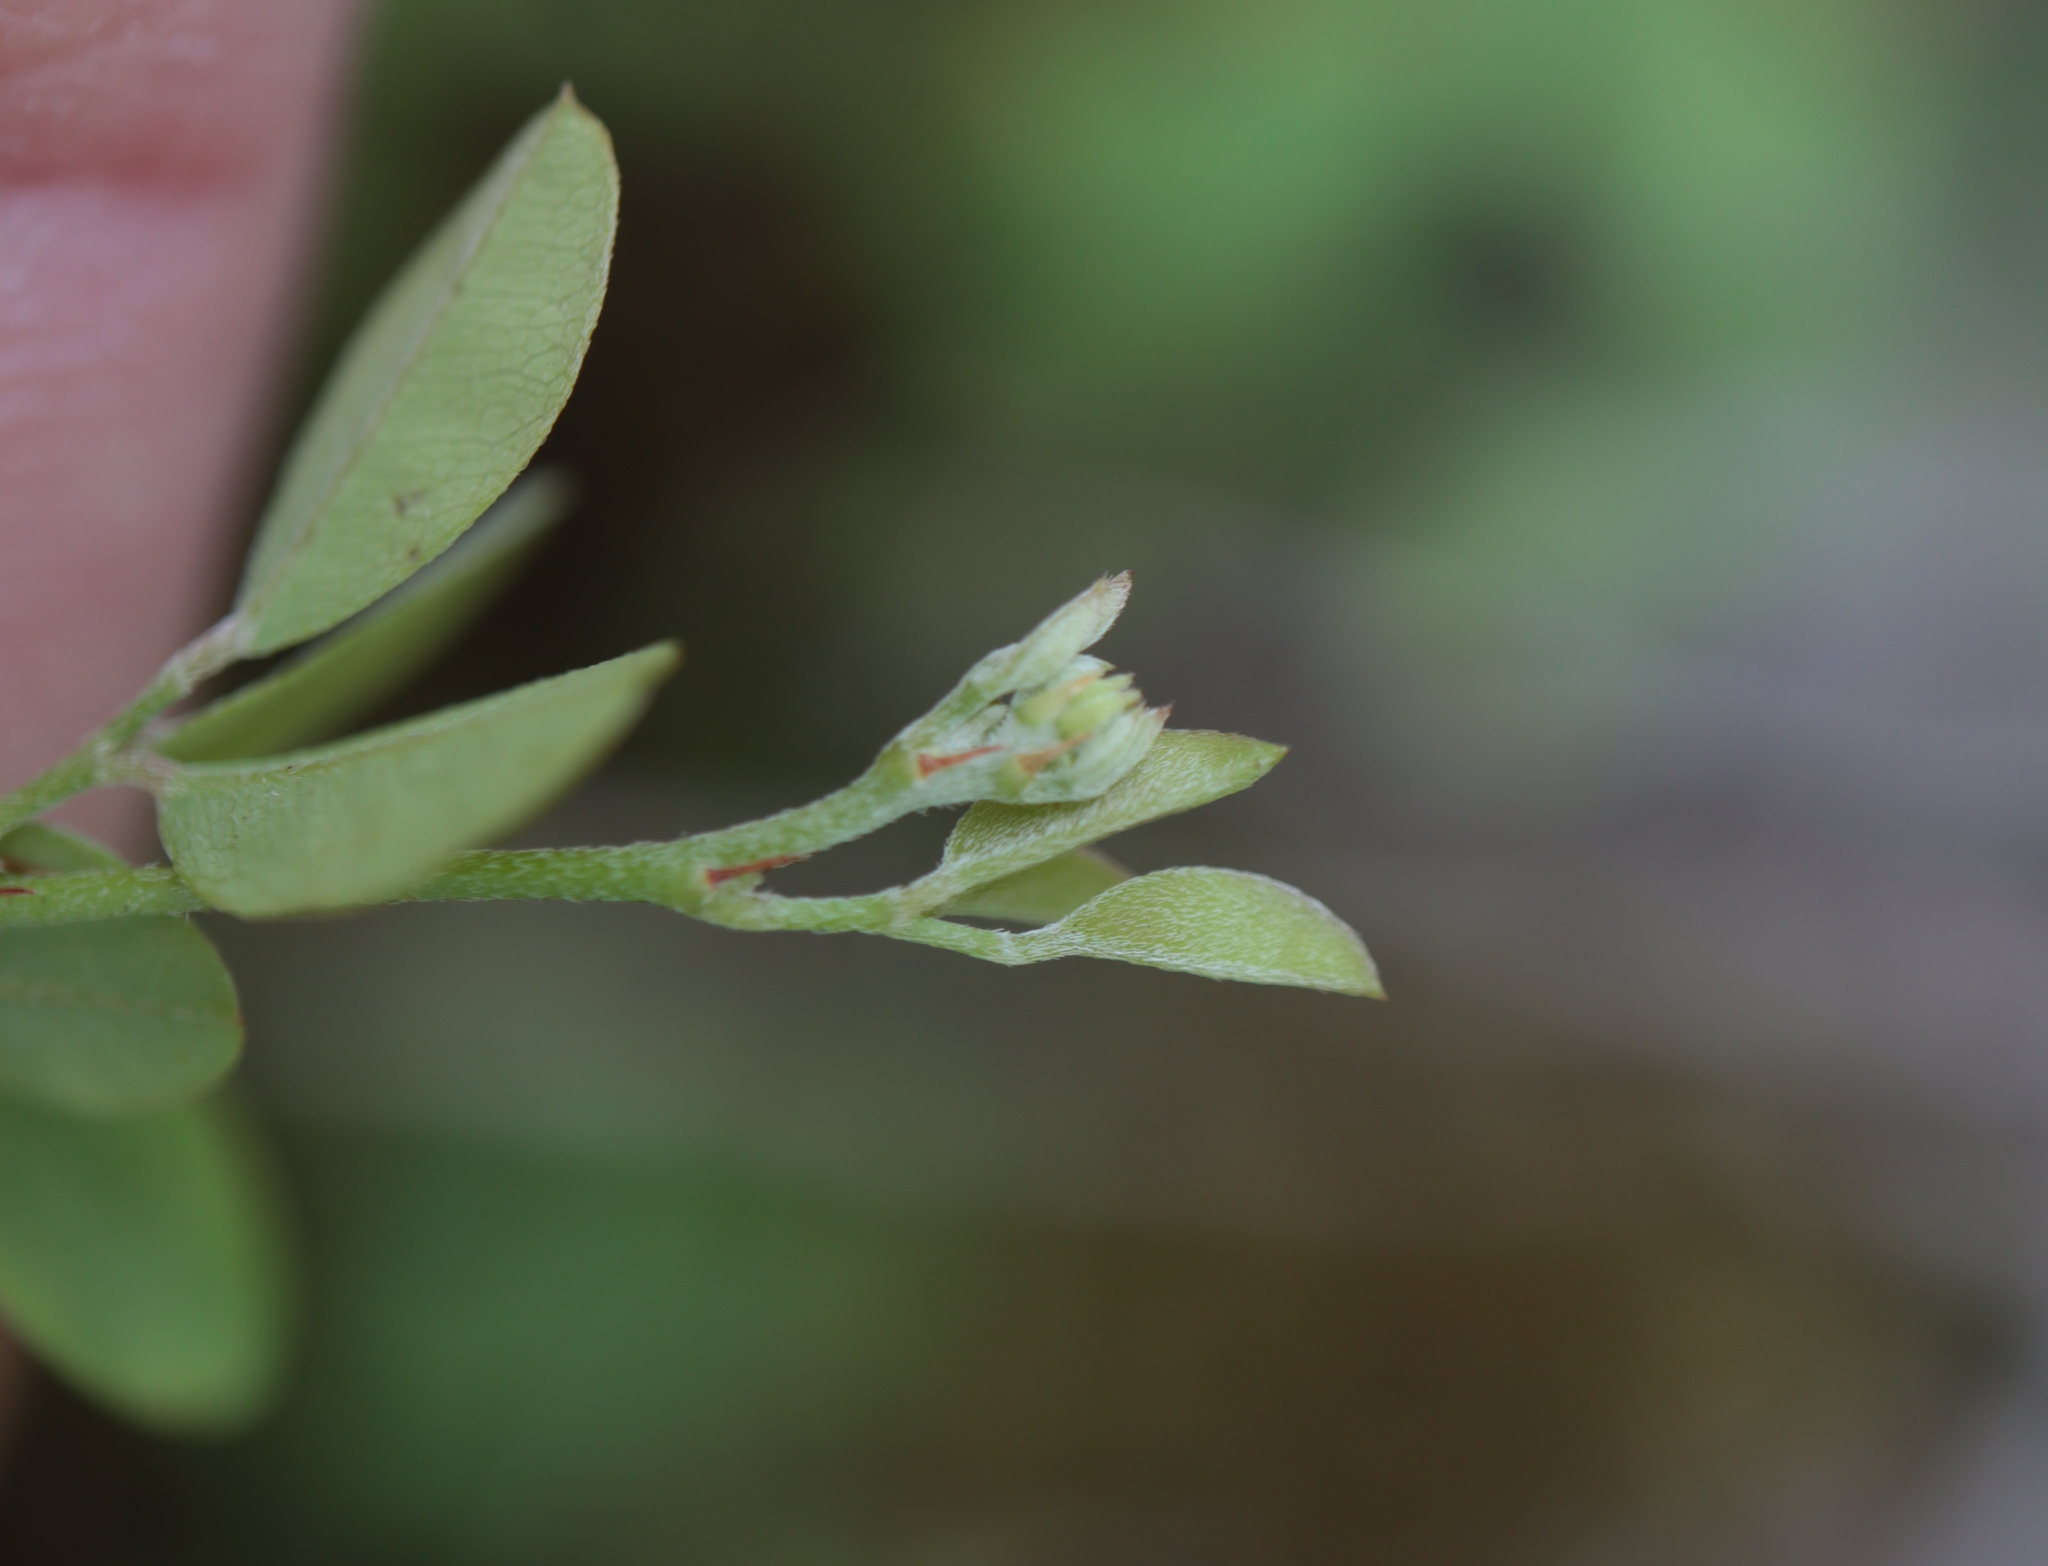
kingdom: Plantae
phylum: Tracheophyta
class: Magnoliopsida
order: Fabales
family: Fabaceae
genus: Lespedeza
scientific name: Lespedeza repens
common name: Creeping bush-clover
